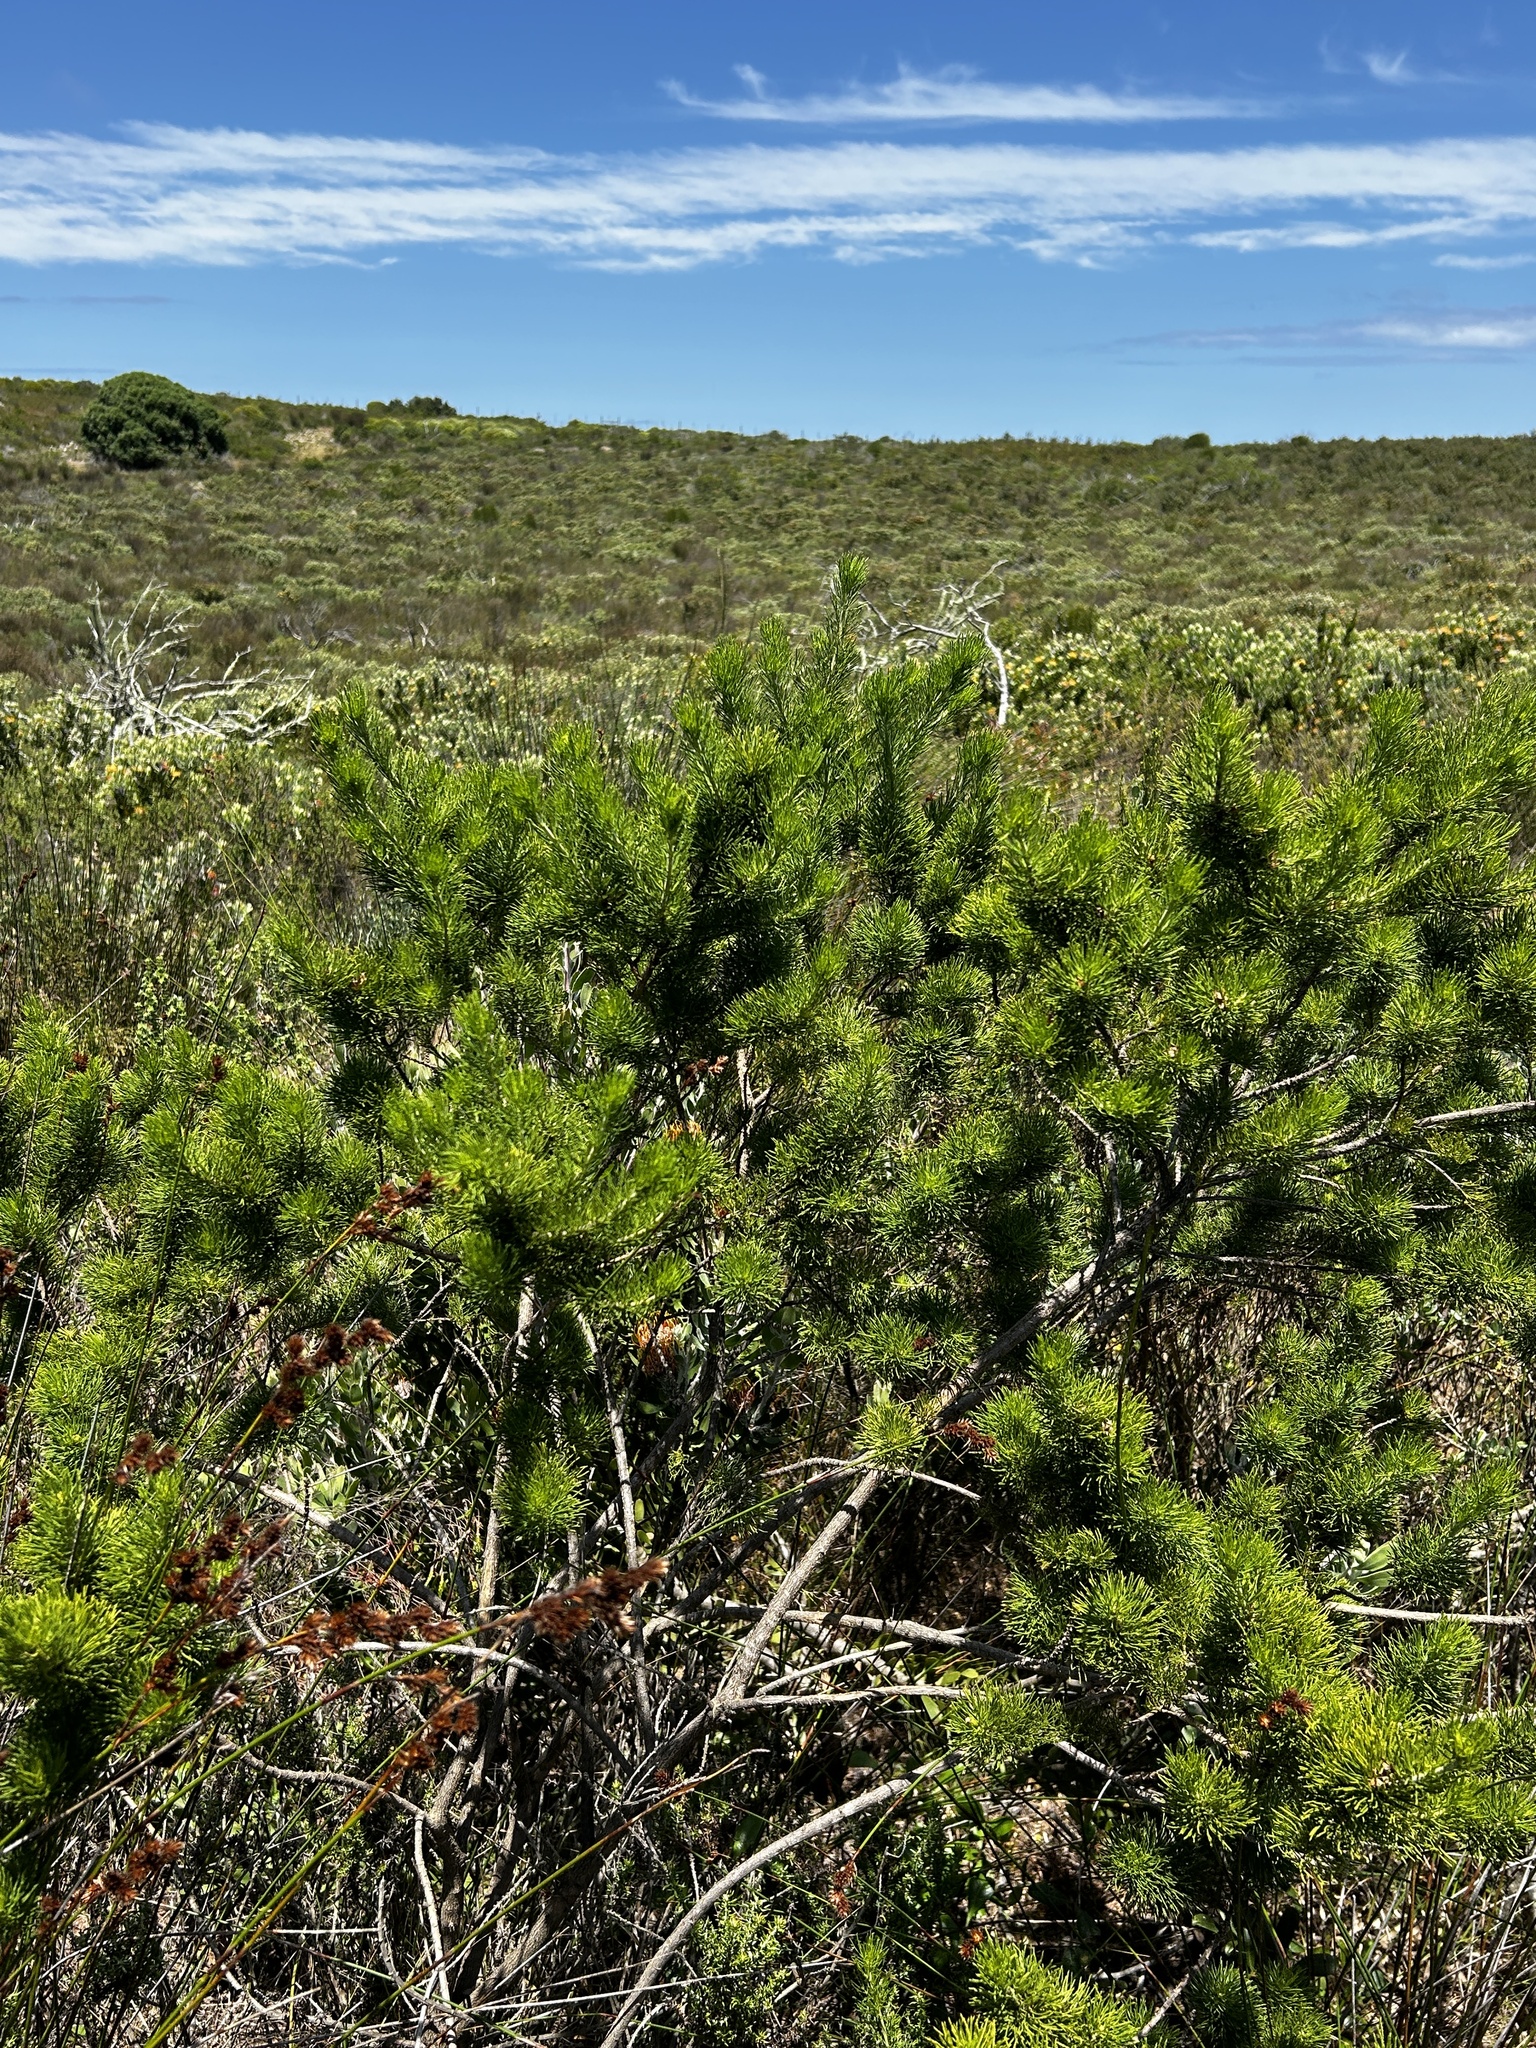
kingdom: Plantae
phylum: Tracheophyta
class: Magnoliopsida
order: Fabales
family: Fabaceae
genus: Psoralea
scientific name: Psoralea muirii
